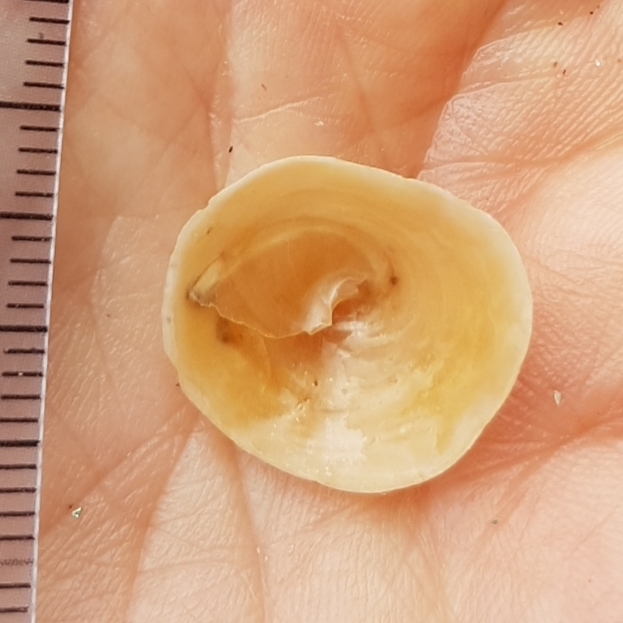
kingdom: Animalia
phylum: Mollusca
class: Gastropoda
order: Littorinimorpha
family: Calyptraeidae
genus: Calyptraea
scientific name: Calyptraea chinensis
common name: Chinaman's hat
